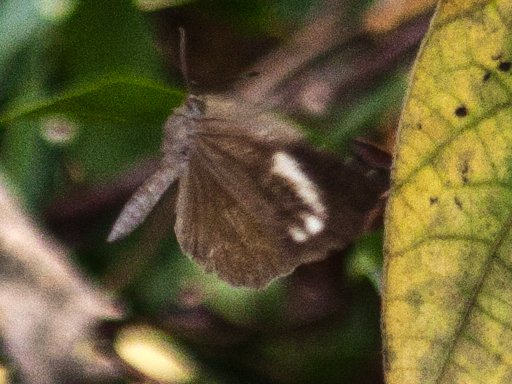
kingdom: Animalia
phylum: Arthropoda
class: Insecta
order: Lepidoptera
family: Lycaenidae
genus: Miletus
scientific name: Miletus mallus
